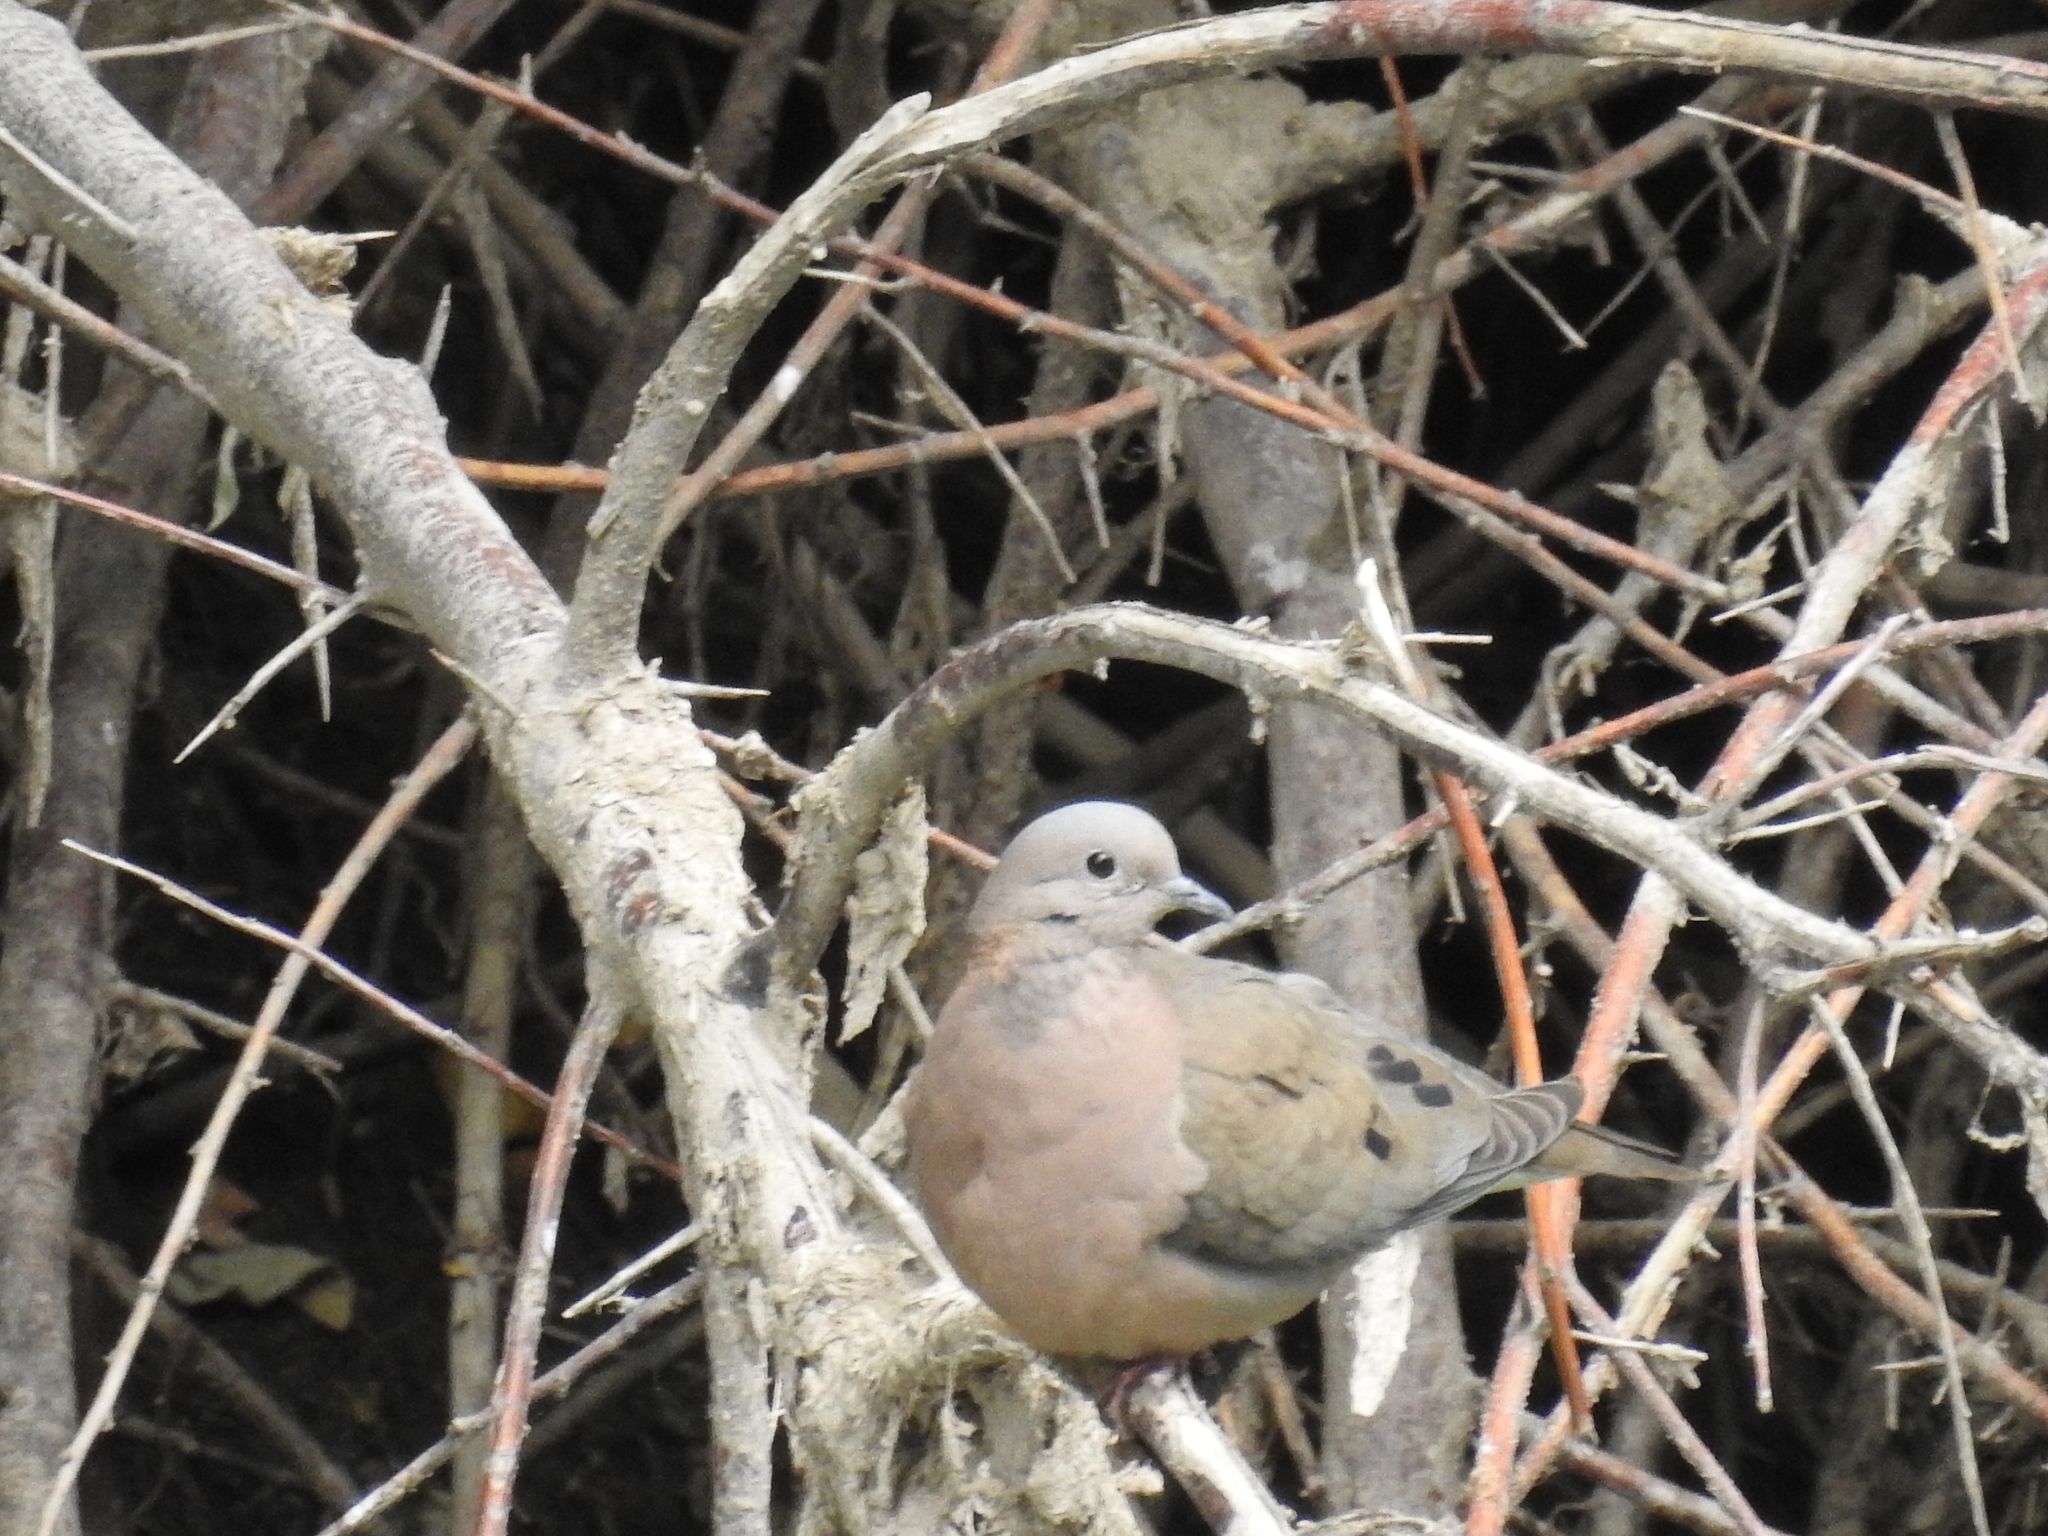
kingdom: Animalia
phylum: Chordata
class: Aves
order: Columbiformes
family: Columbidae
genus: Zenaida
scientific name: Zenaida auriculata
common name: Eared dove
